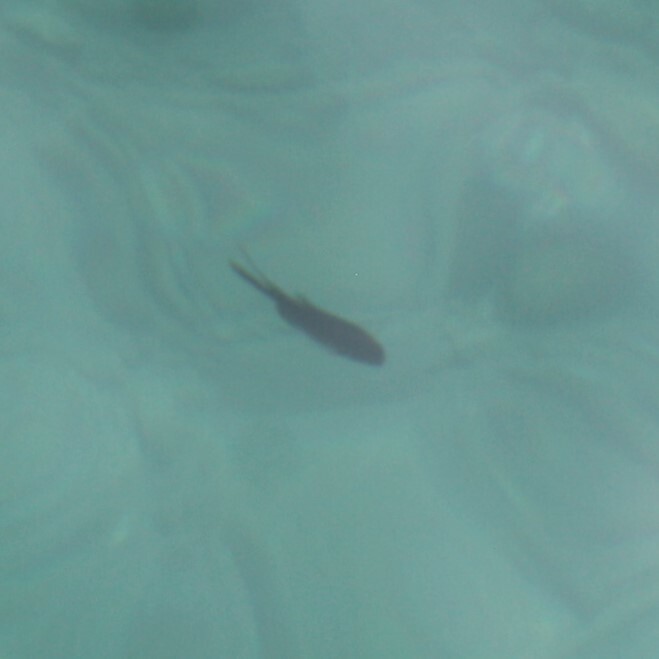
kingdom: Animalia
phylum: Chordata
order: Perciformes
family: Pomacentridae
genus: Chromis
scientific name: Chromis chromis
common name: Damselfish
